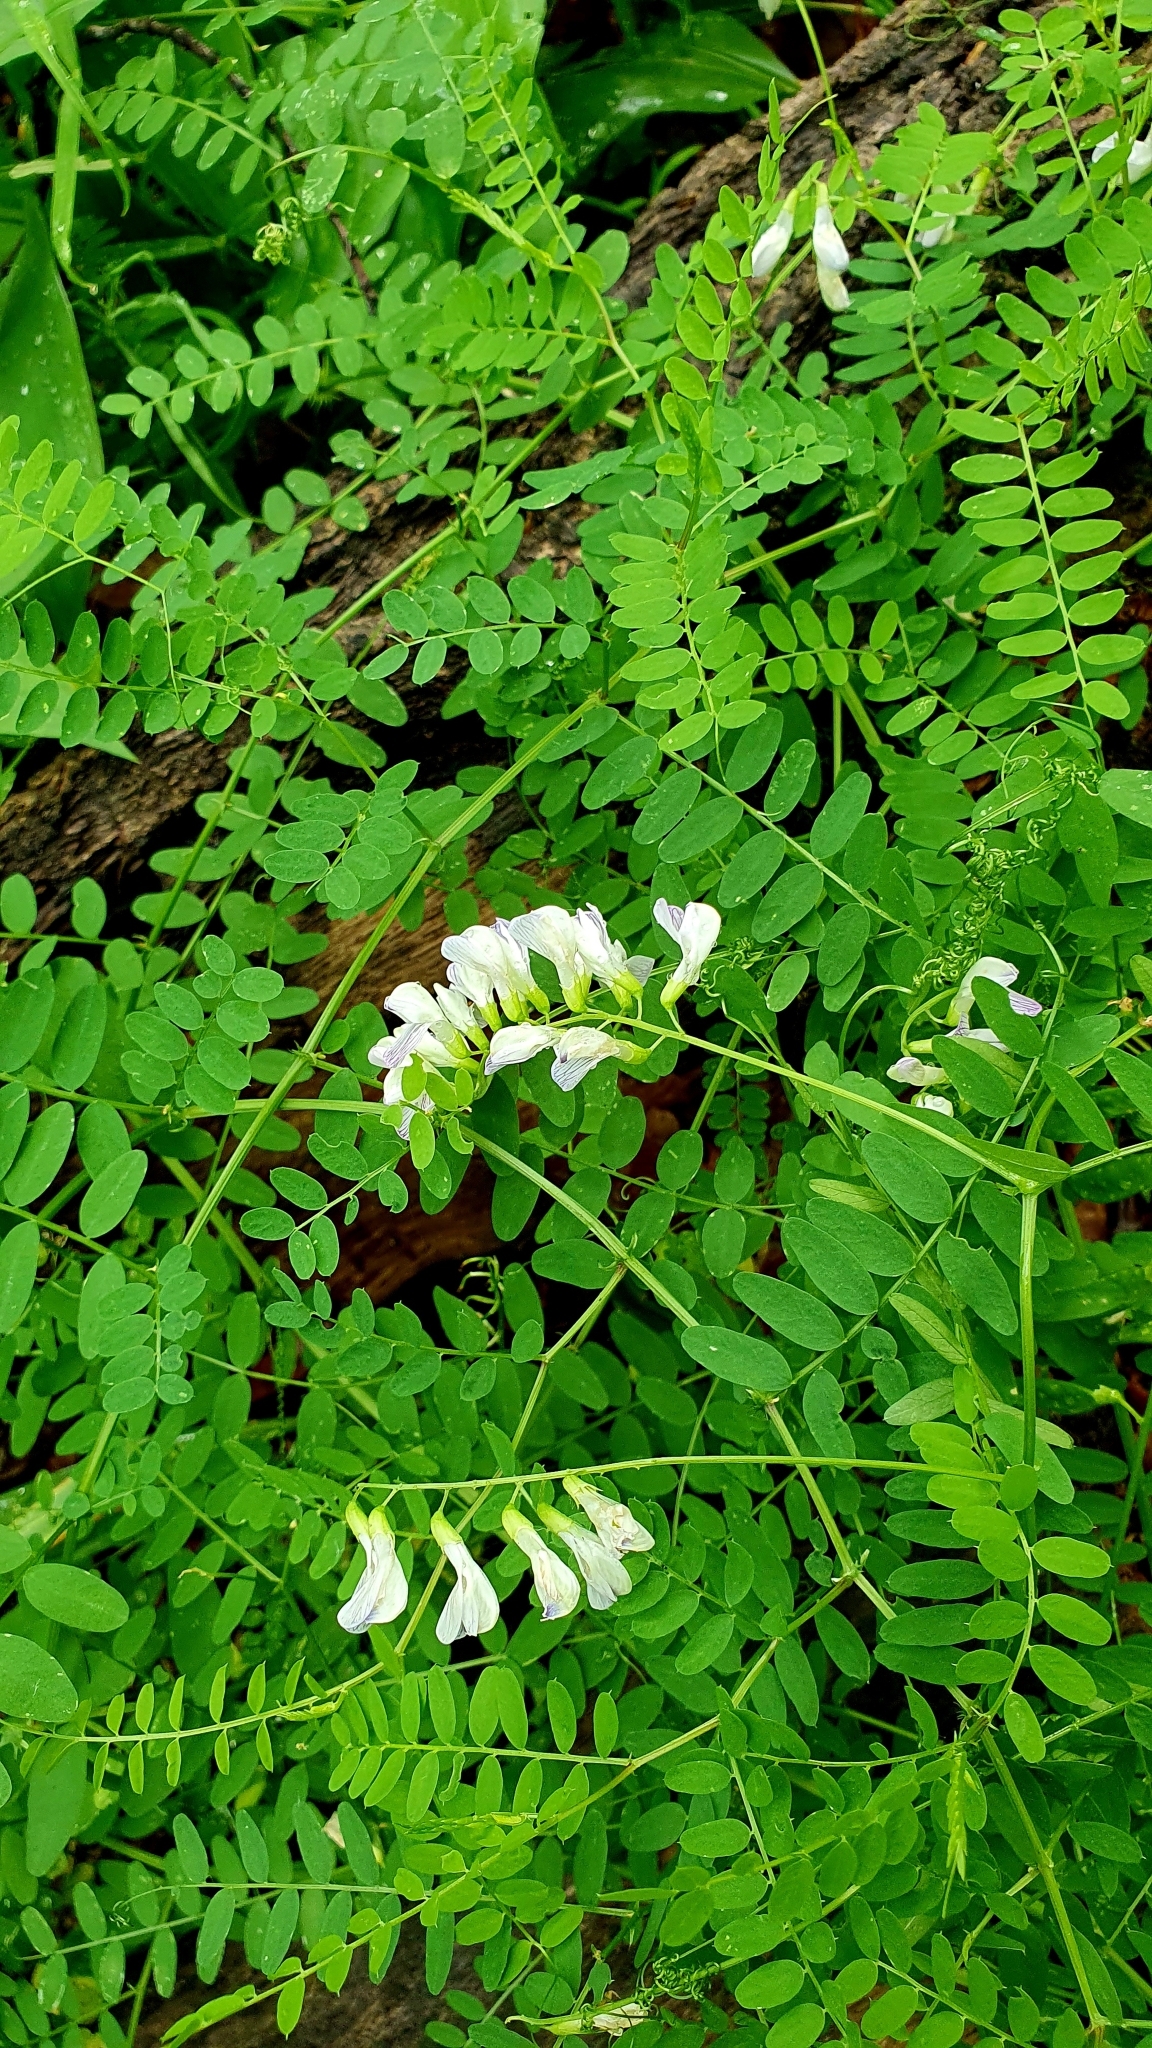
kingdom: Plantae
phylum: Tracheophyta
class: Magnoliopsida
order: Fabales
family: Fabaceae
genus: Vicia
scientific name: Vicia sylvatica
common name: Wood vetch
